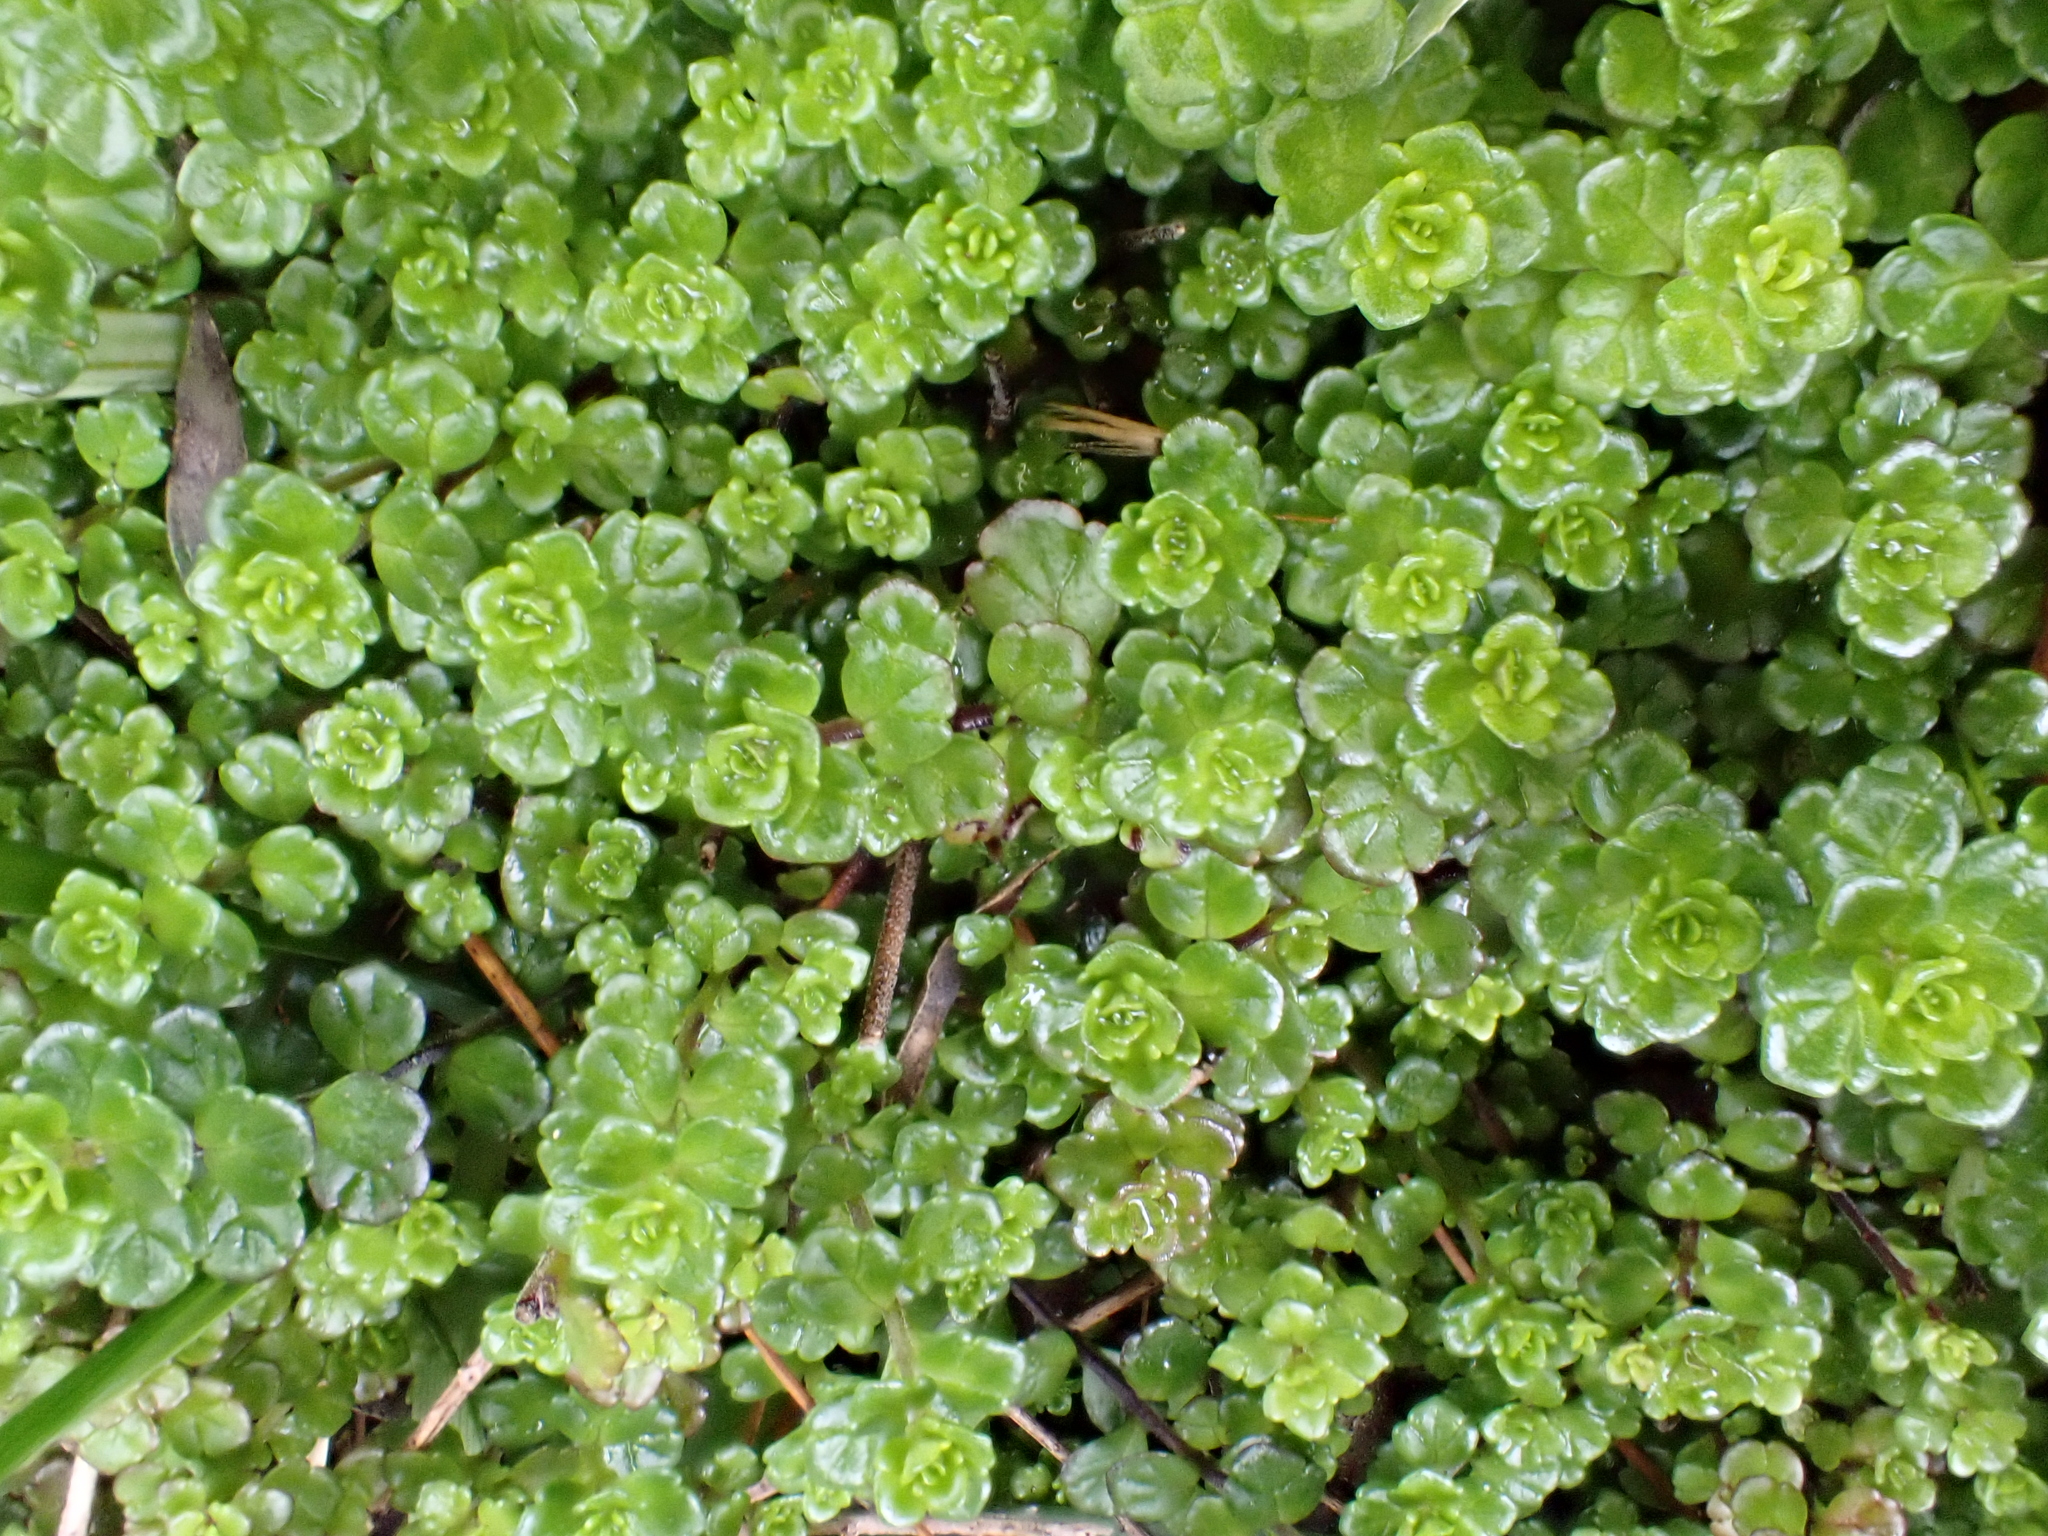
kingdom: Plantae
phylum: Tracheophyta
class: Magnoliopsida
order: Lamiales
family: Orobanchaceae
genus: Euphrasia
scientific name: Euphrasia cuneata
